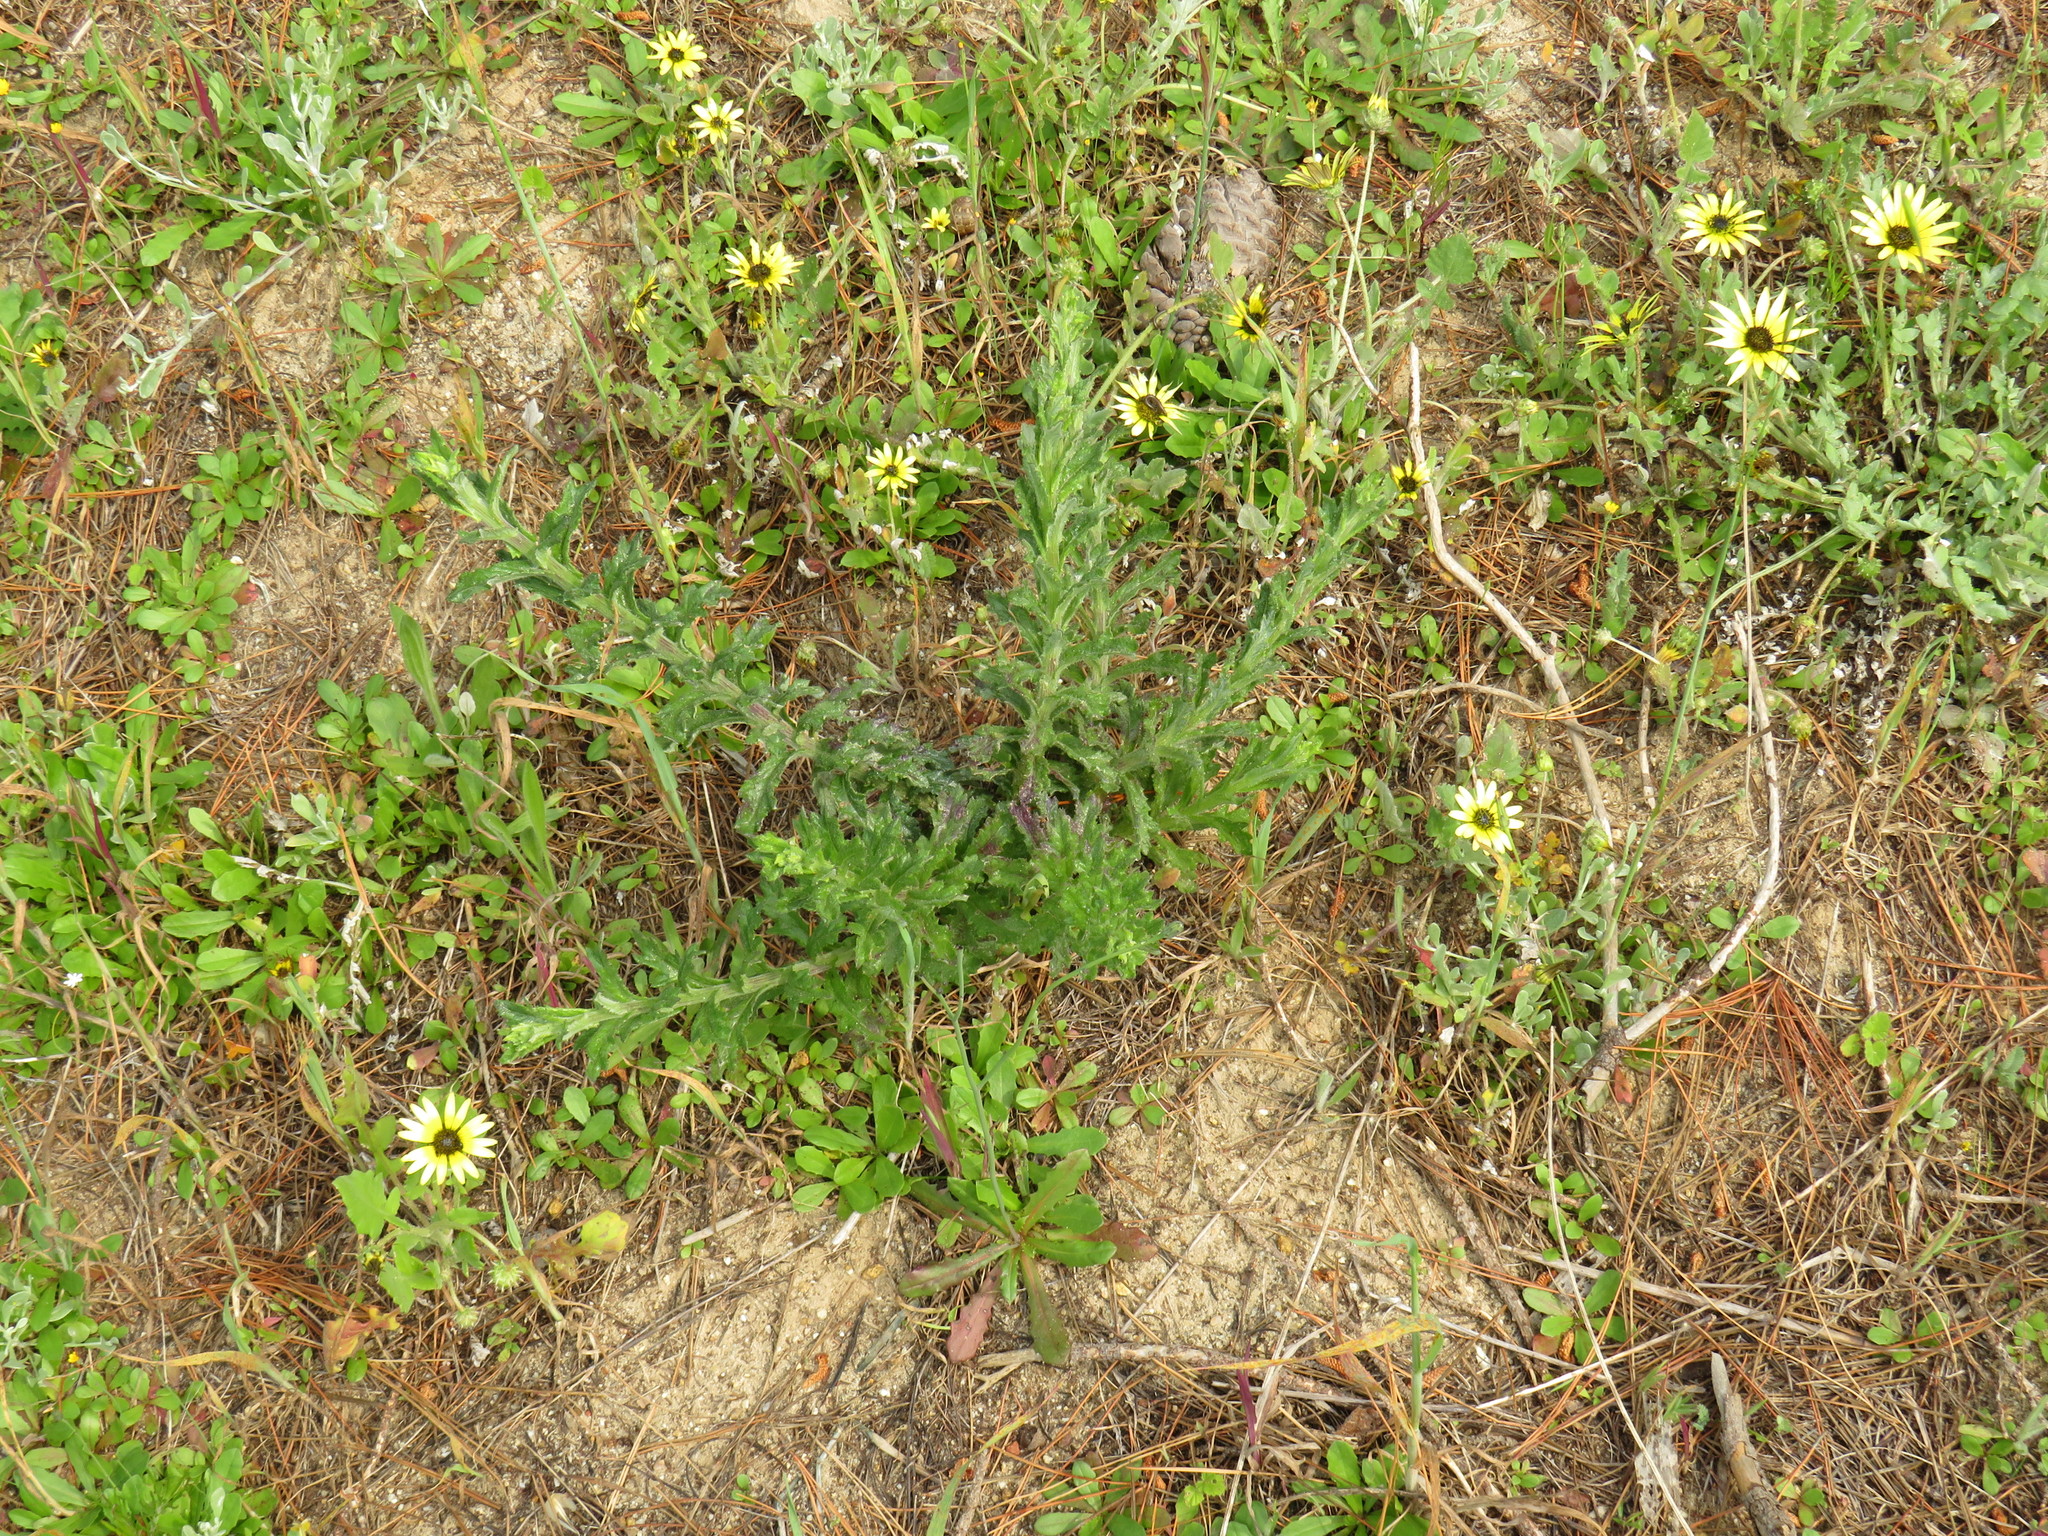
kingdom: Plantae
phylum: Tracheophyta
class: Magnoliopsida
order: Asterales
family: Asteraceae
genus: Senecio
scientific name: Senecio pubigerus
